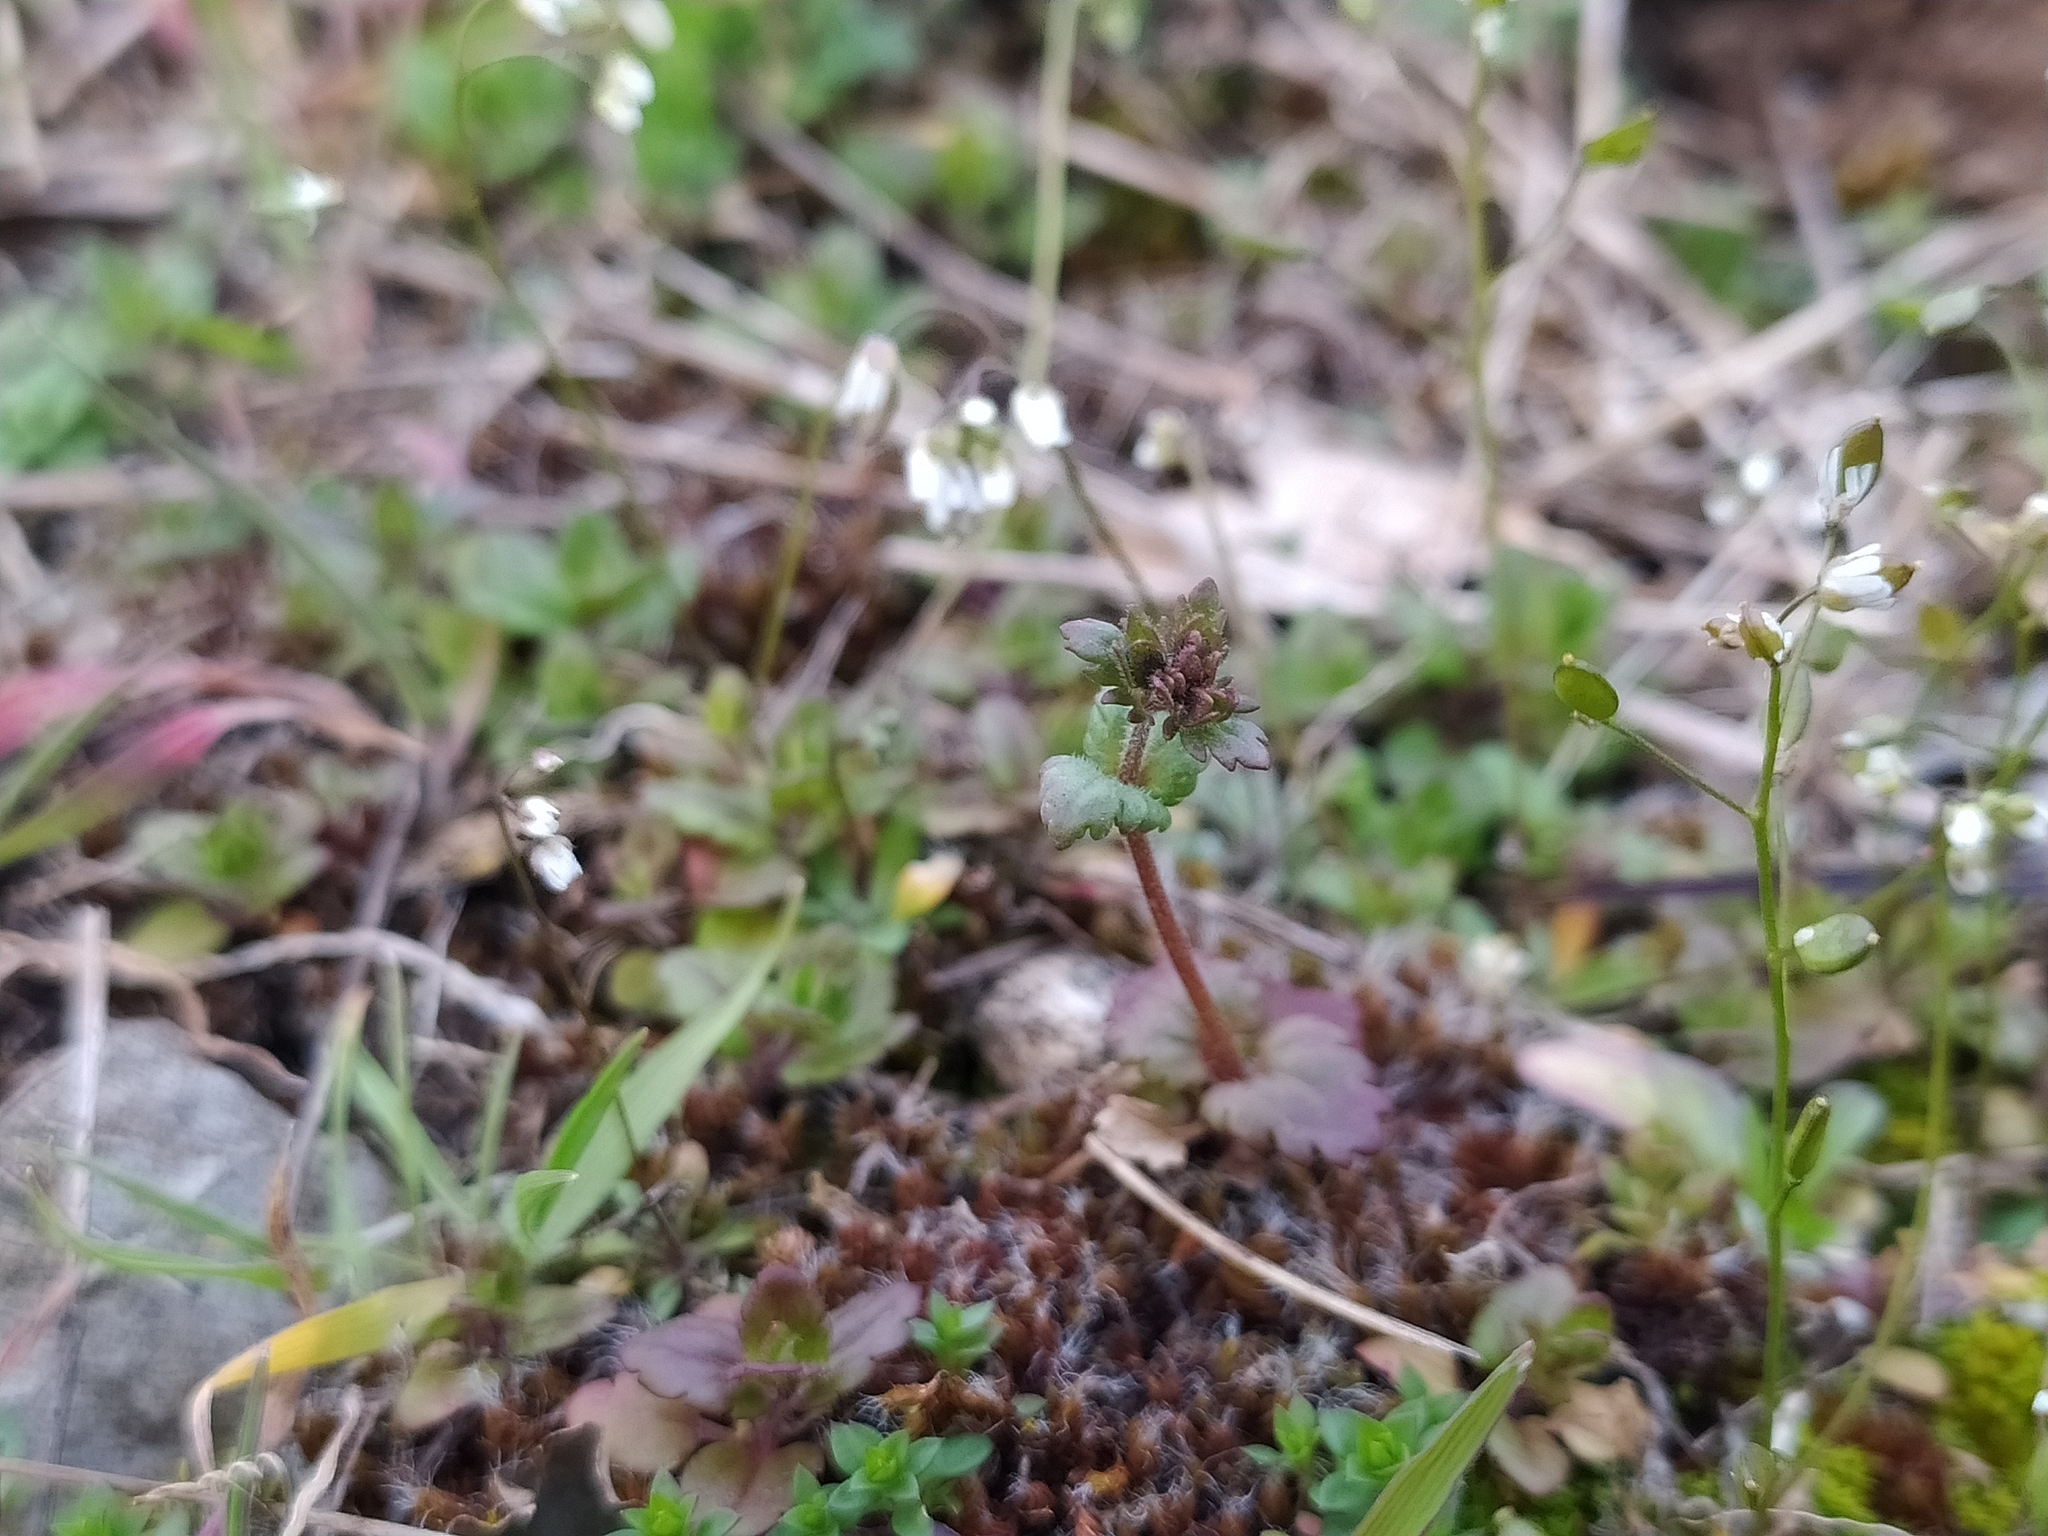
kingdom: Plantae
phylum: Tracheophyta
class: Magnoliopsida
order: Lamiales
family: Plantaginaceae
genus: Veronica
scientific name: Veronica praecox
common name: Breckland speedwell
